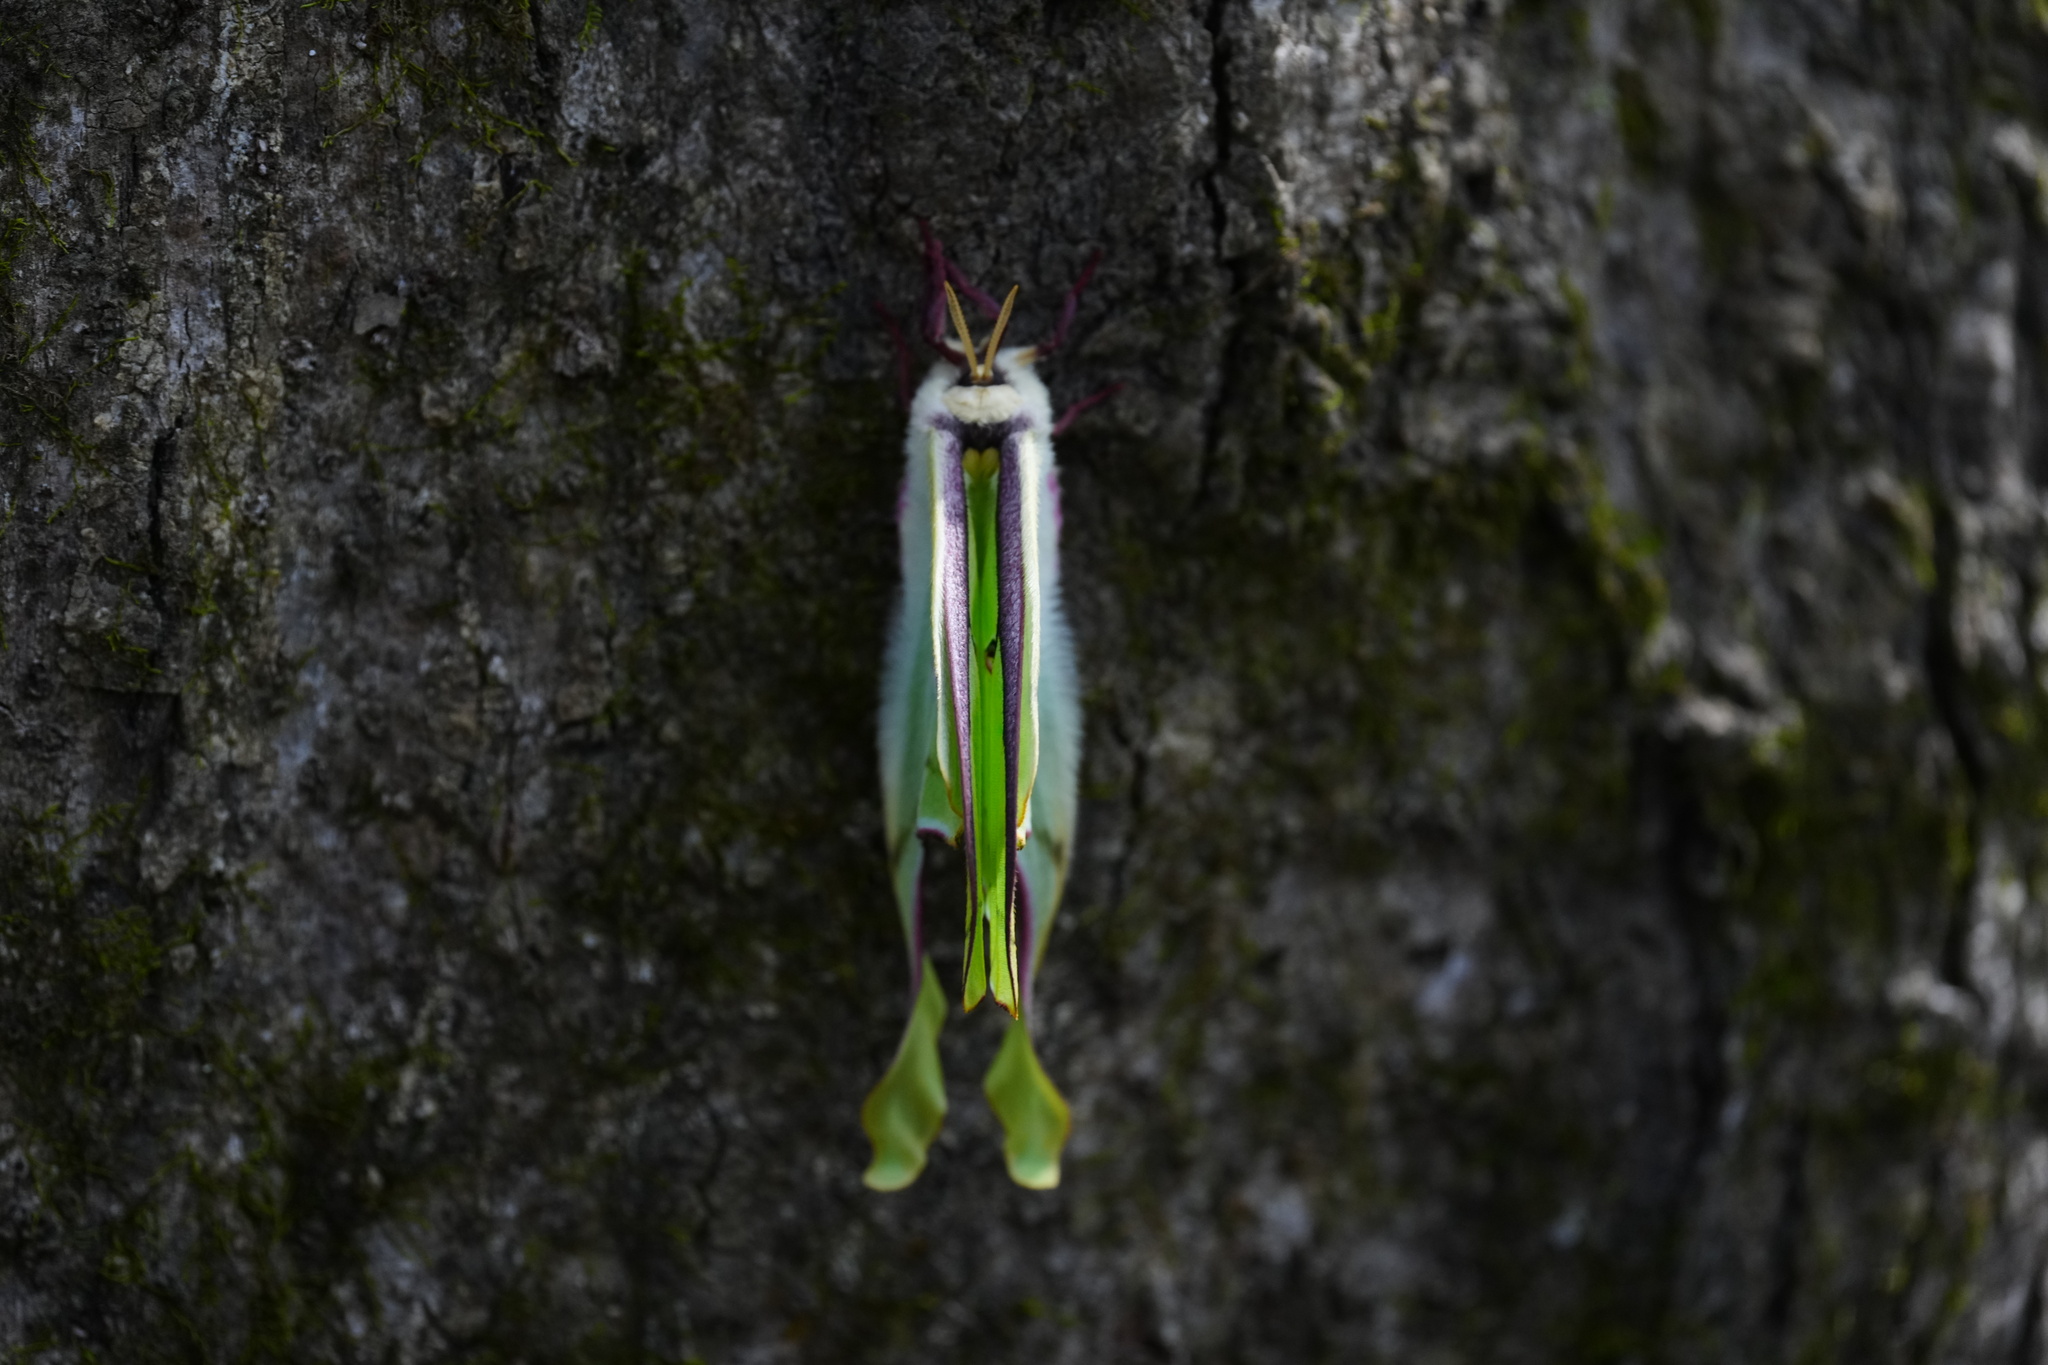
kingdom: Animalia
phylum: Arthropoda
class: Insecta
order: Lepidoptera
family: Saturniidae
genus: Actias
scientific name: Actias luna
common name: Luna moth
